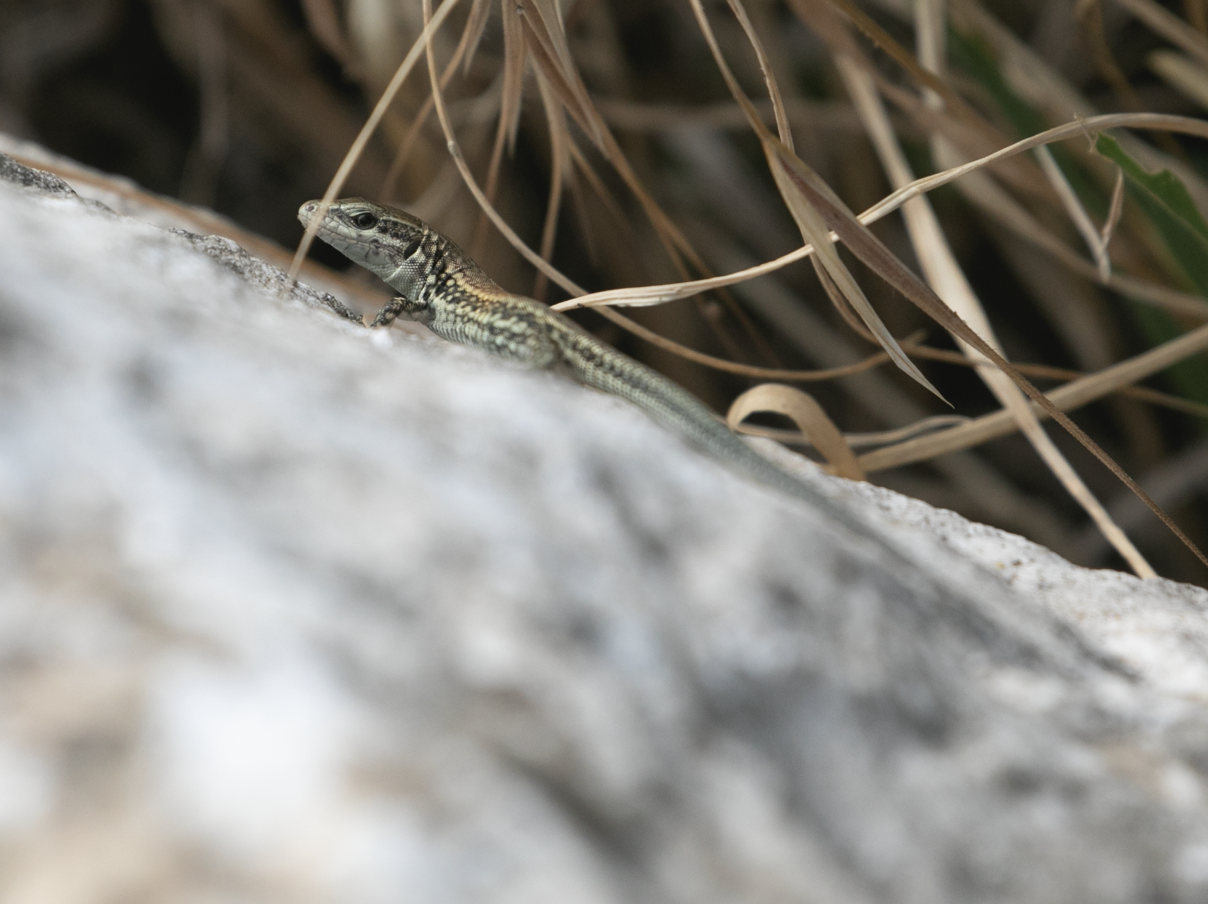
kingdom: Animalia
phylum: Chordata
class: Squamata
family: Lacertidae
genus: Podarcis
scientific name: Podarcis muralis
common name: Common wall lizard
